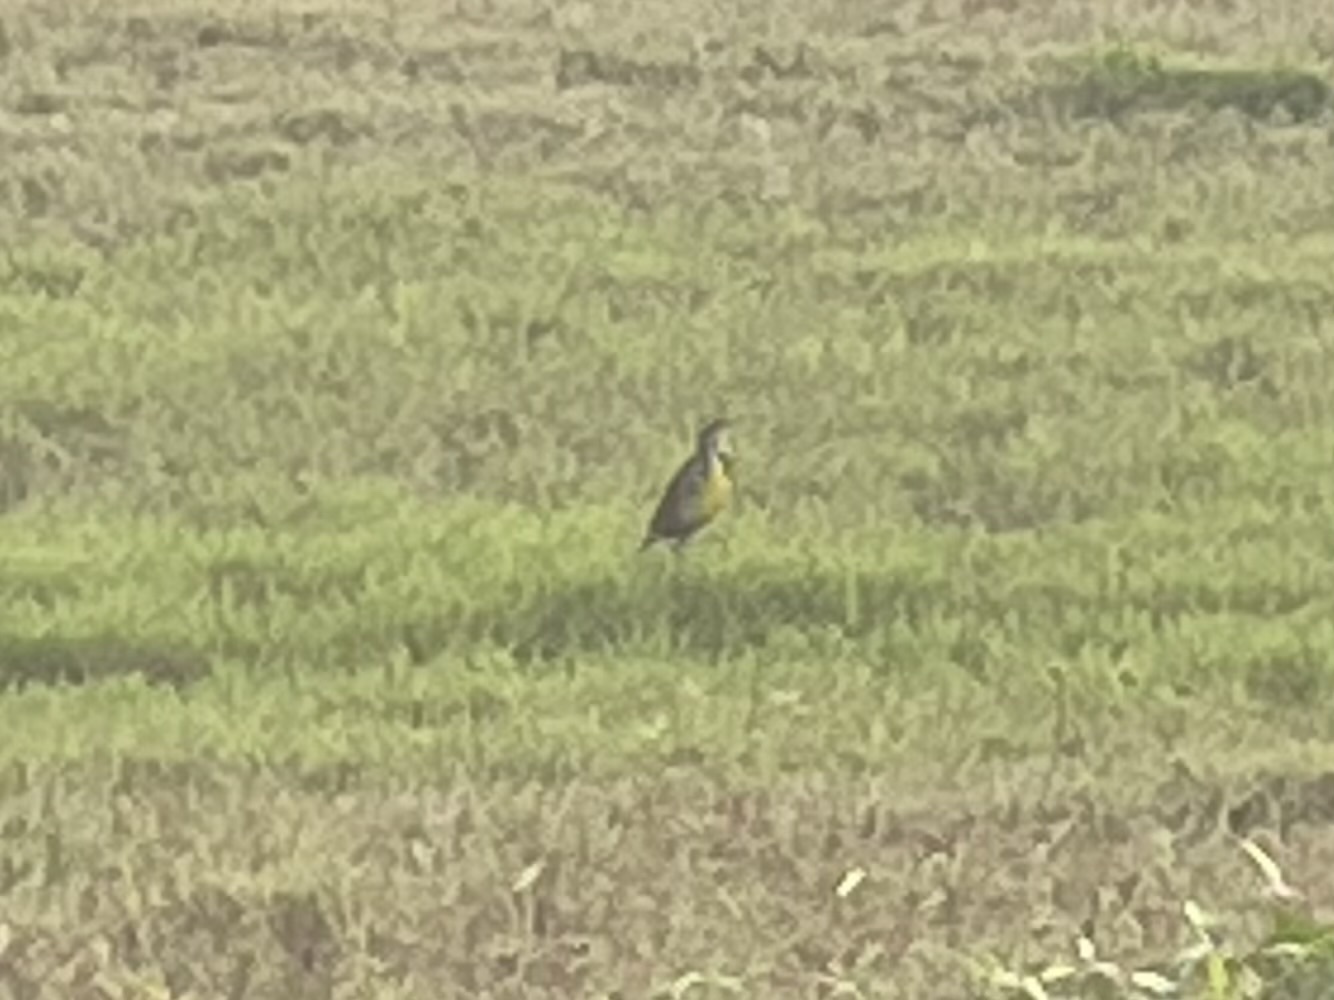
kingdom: Animalia
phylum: Chordata
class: Aves
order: Passeriformes
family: Icteridae
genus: Sturnella
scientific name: Sturnella magna
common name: Eastern meadowlark
